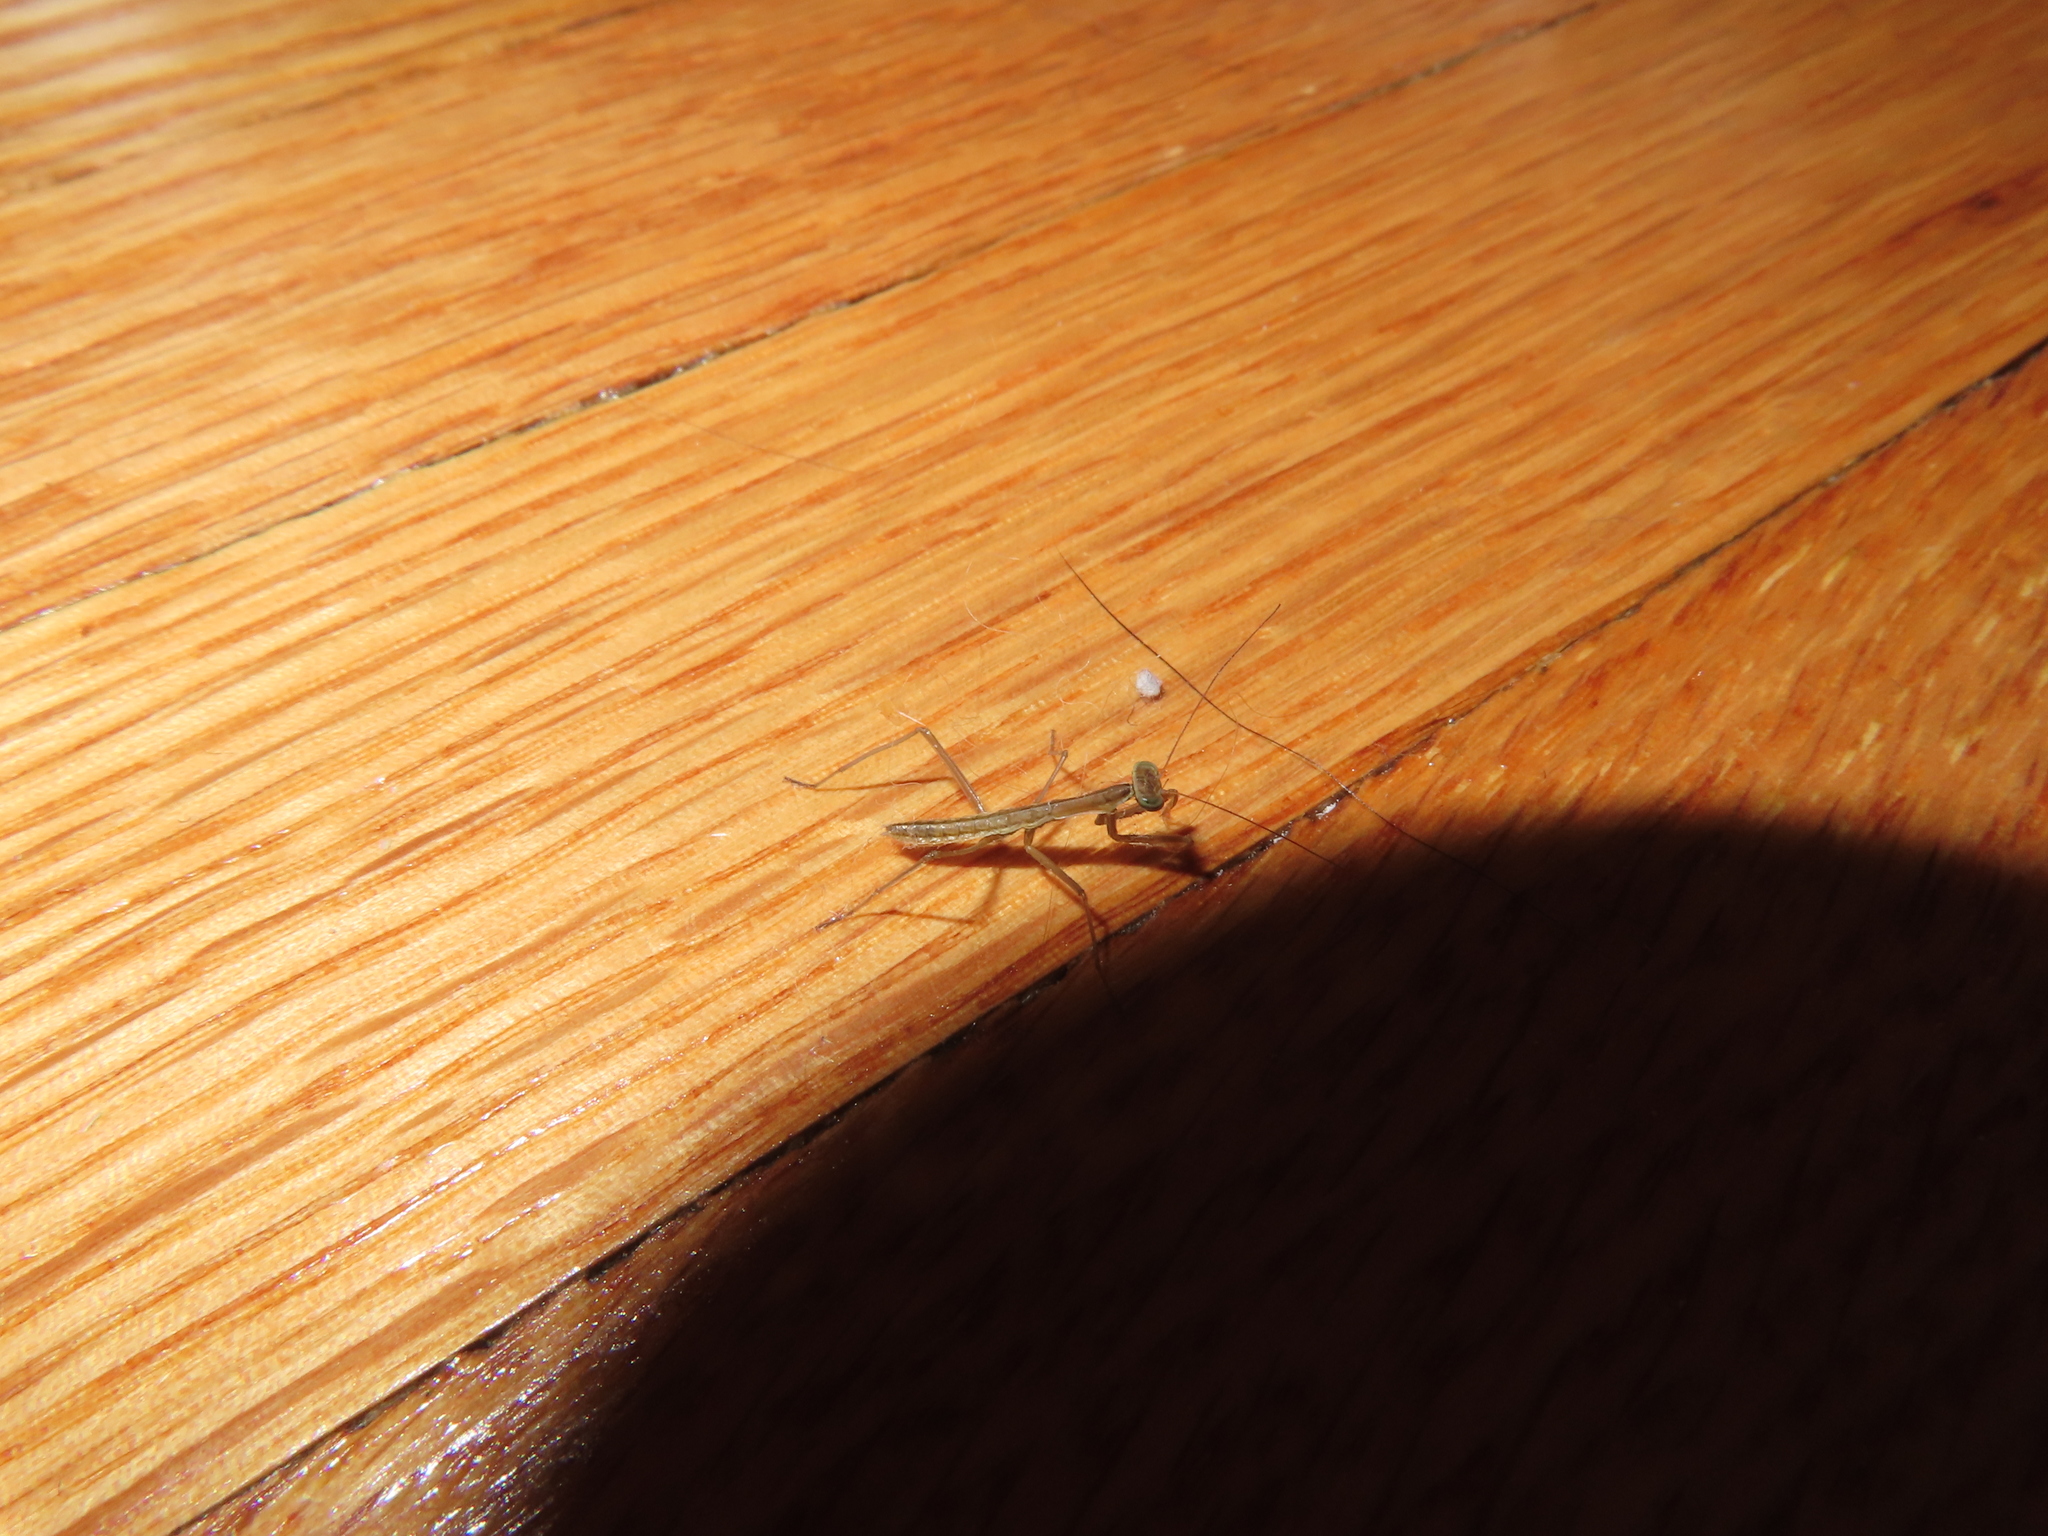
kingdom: Animalia
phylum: Arthropoda
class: Insecta
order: Mantodea
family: Mantidae
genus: Tenodera
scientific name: Tenodera sinensis
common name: Chinese mantis
